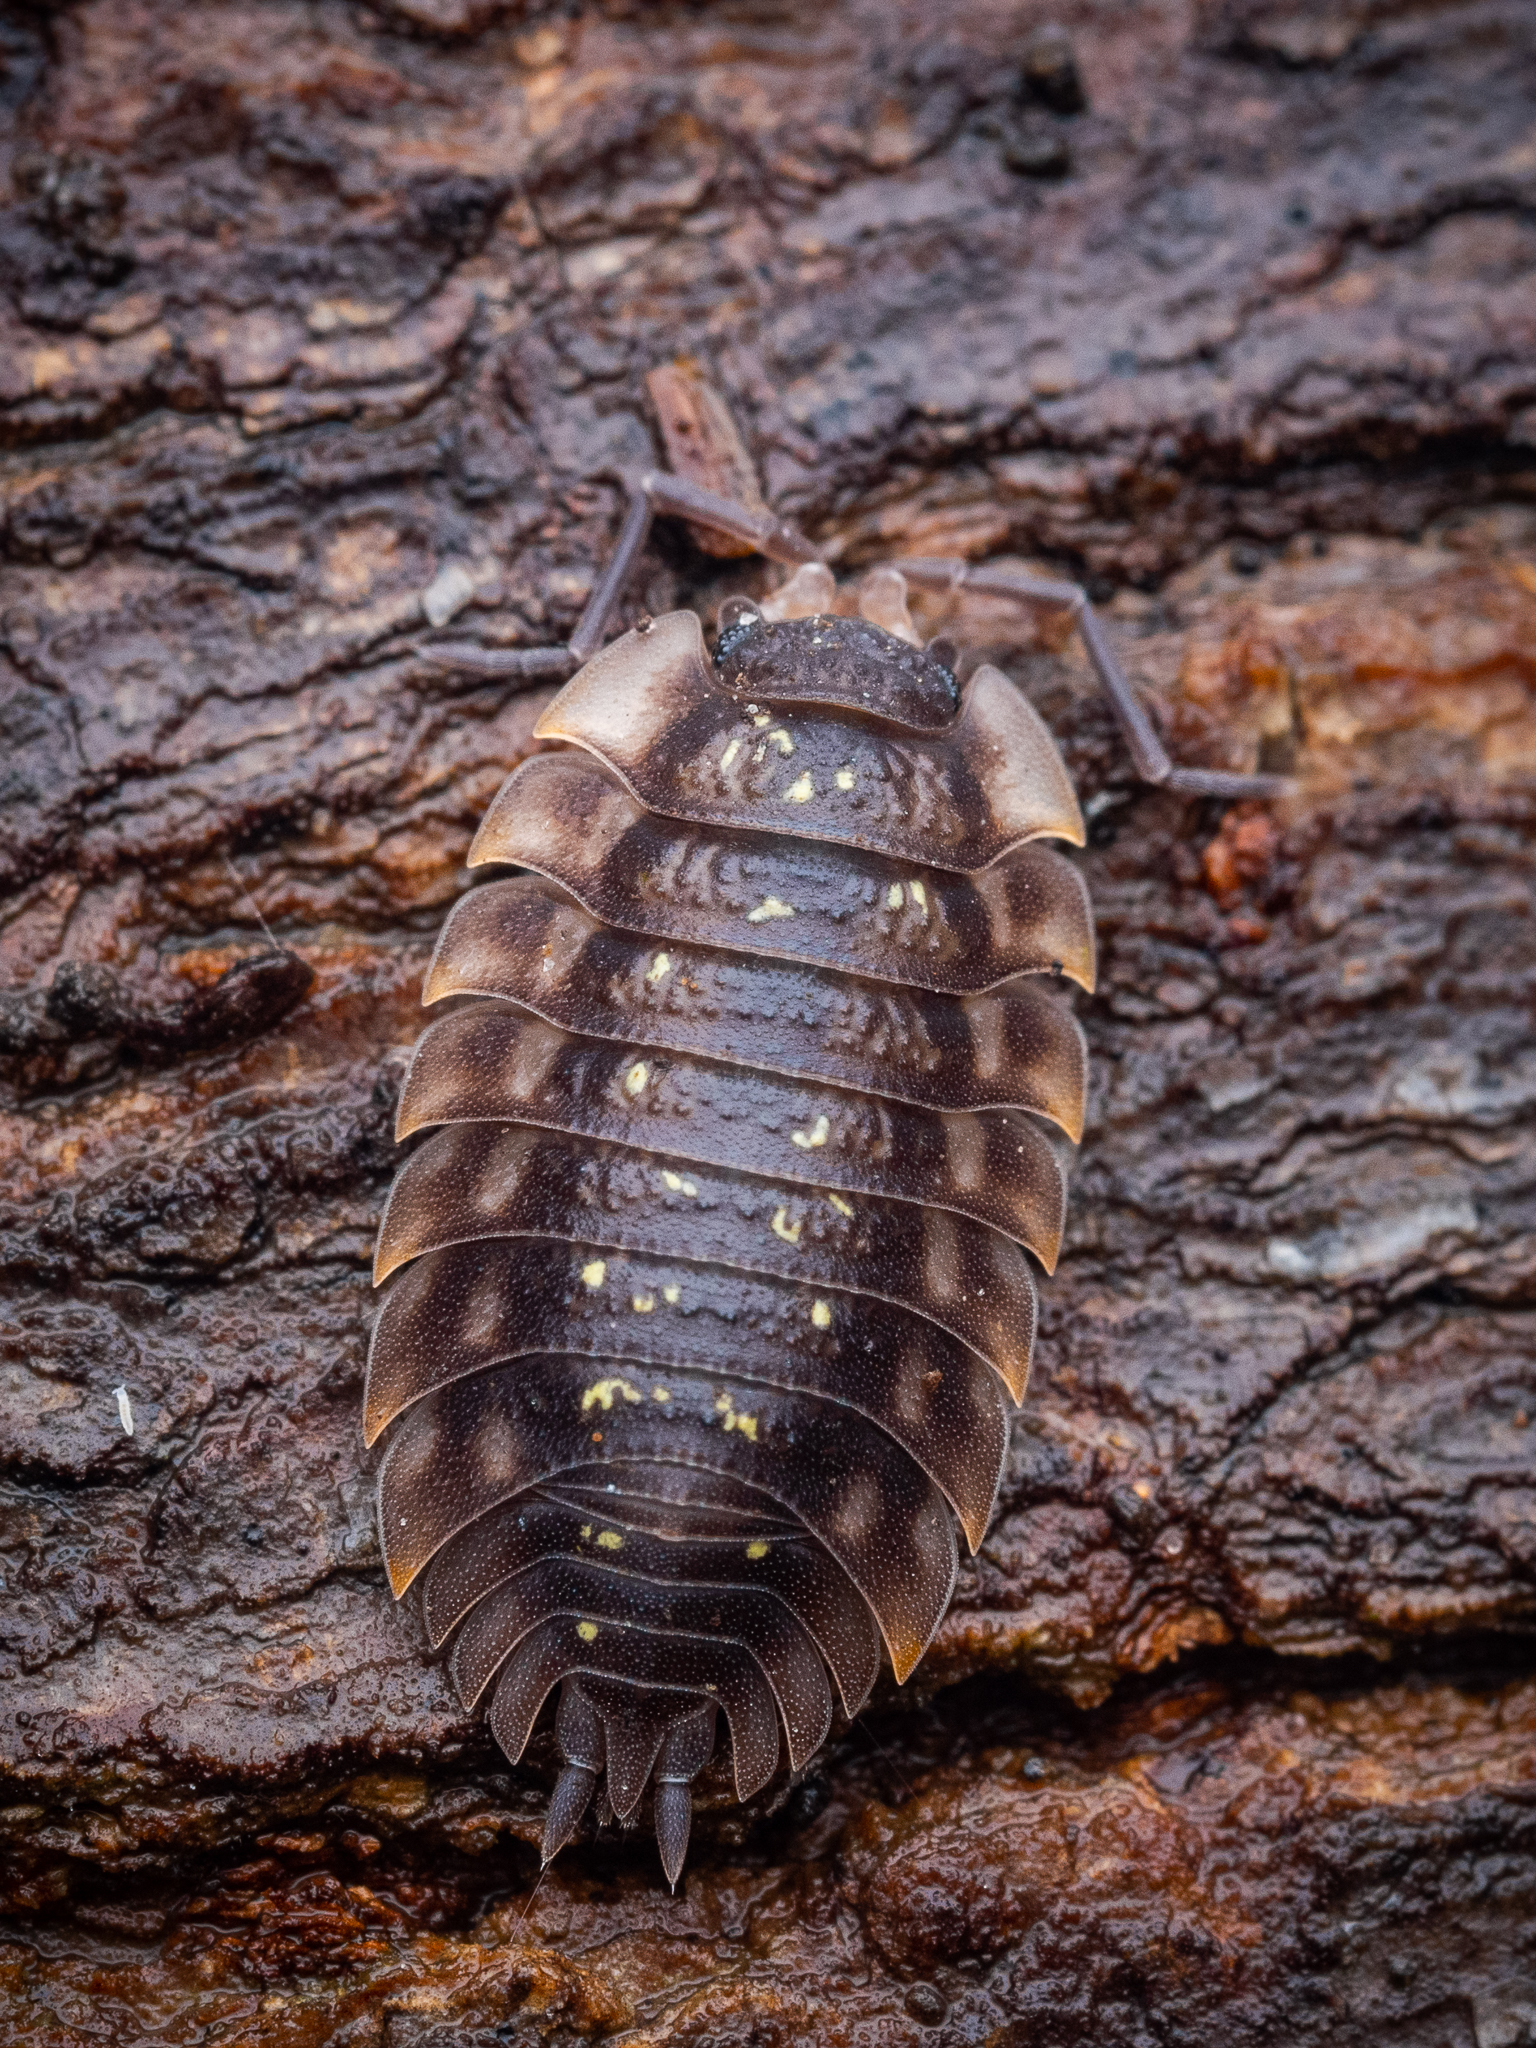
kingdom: Animalia
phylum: Arthropoda
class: Malacostraca
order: Isopoda
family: Oniscidae
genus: Oniscus
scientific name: Oniscus asellus
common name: Common shiny woodlouse
